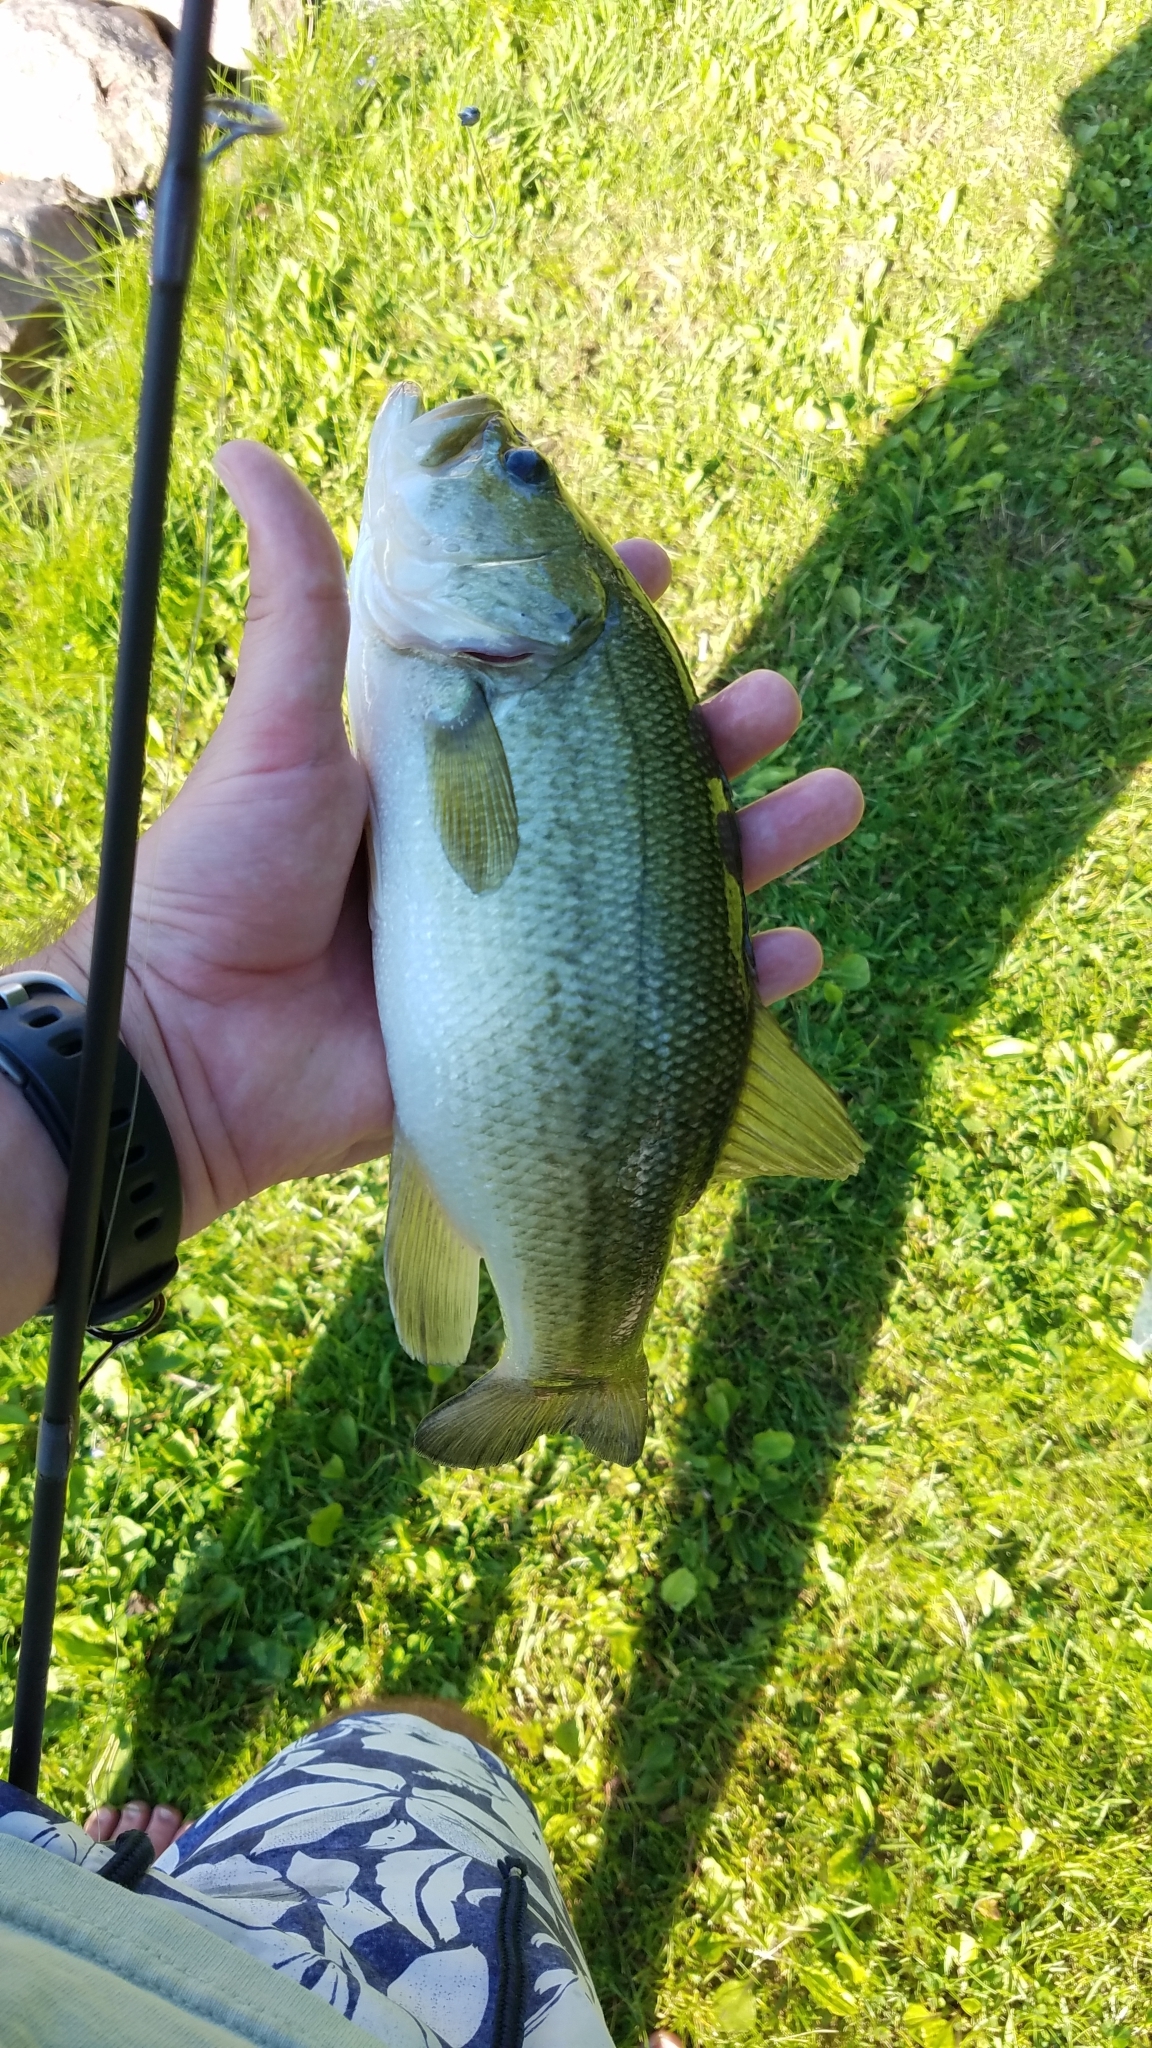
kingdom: Animalia
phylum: Chordata
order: Perciformes
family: Centrarchidae
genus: Micropterus
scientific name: Micropterus
